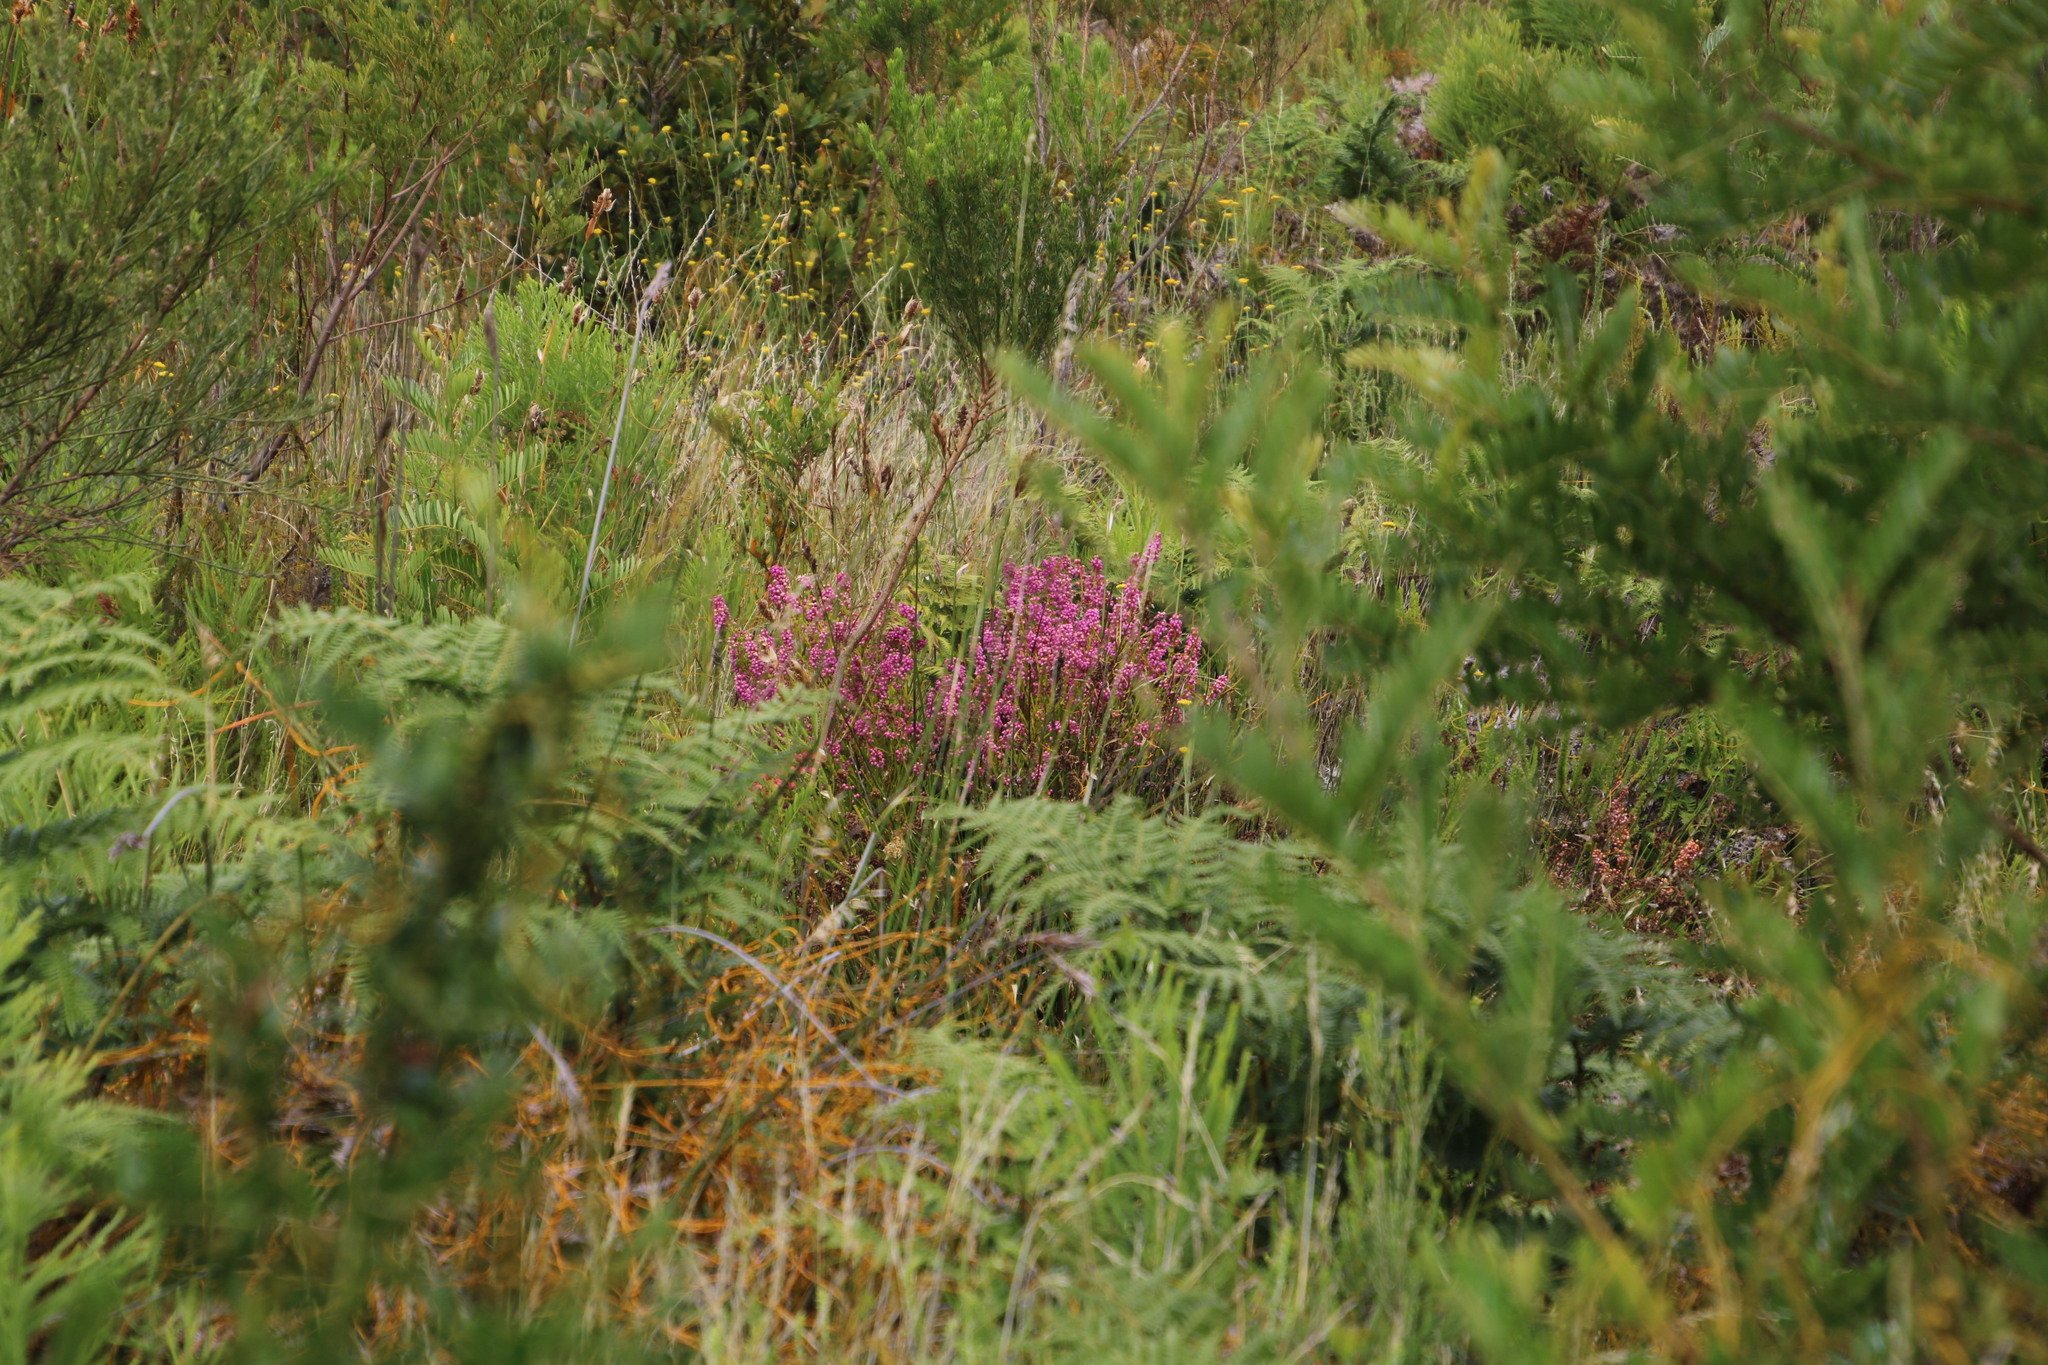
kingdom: Plantae
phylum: Tracheophyta
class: Magnoliopsida
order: Ericales
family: Ericaceae
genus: Erica
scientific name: Erica laeta
